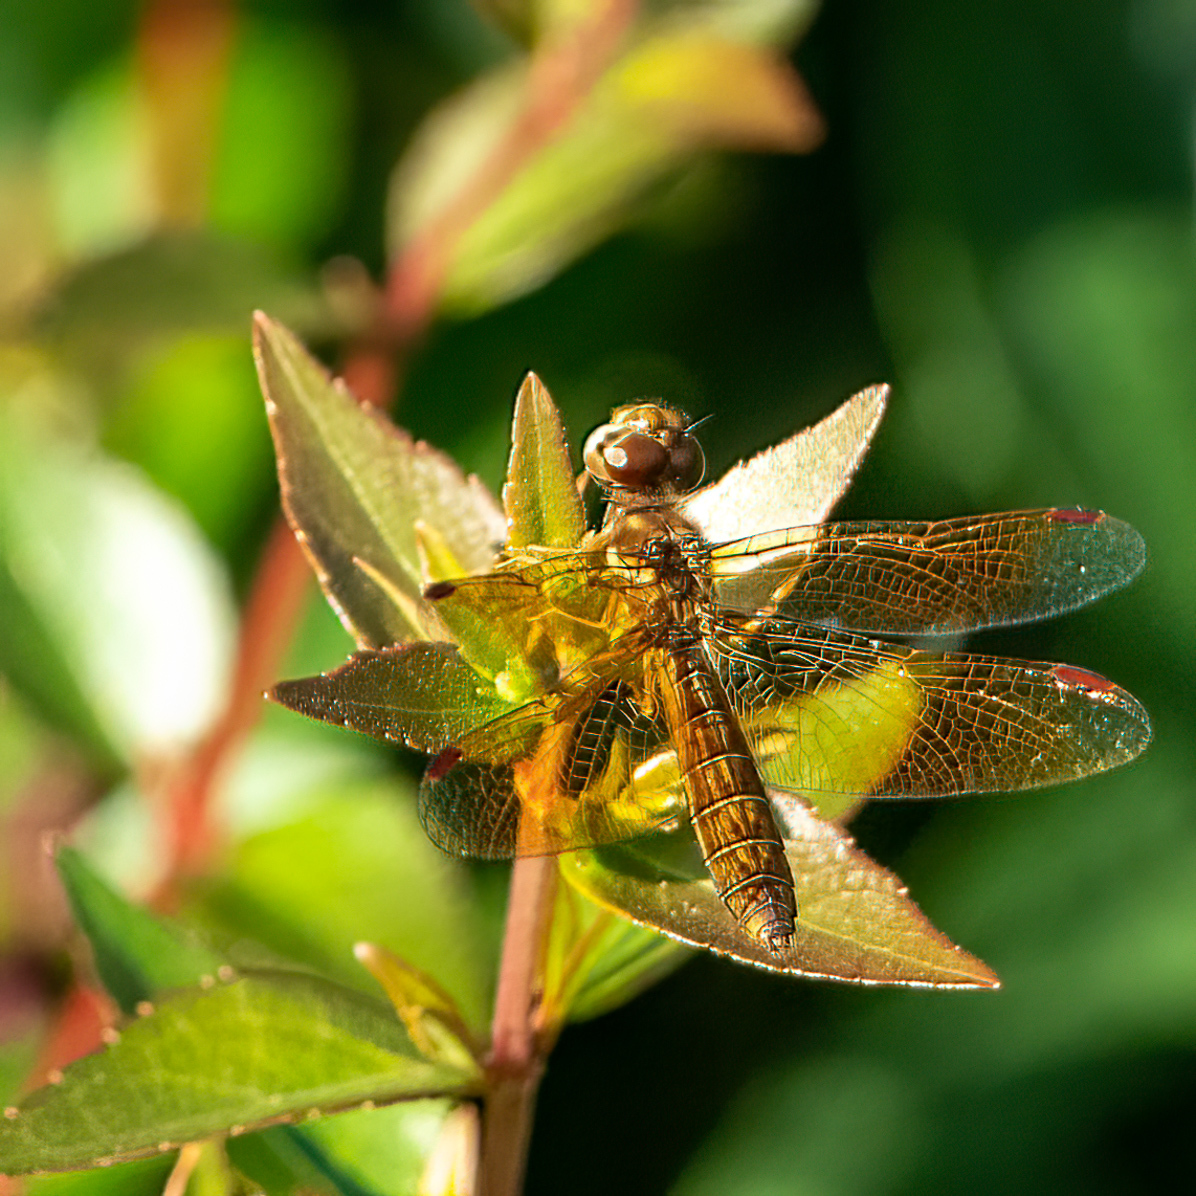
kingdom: Animalia
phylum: Arthropoda
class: Insecta
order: Odonata
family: Libellulidae
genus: Perithemis
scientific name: Perithemis tenera
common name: Eastern amberwing
